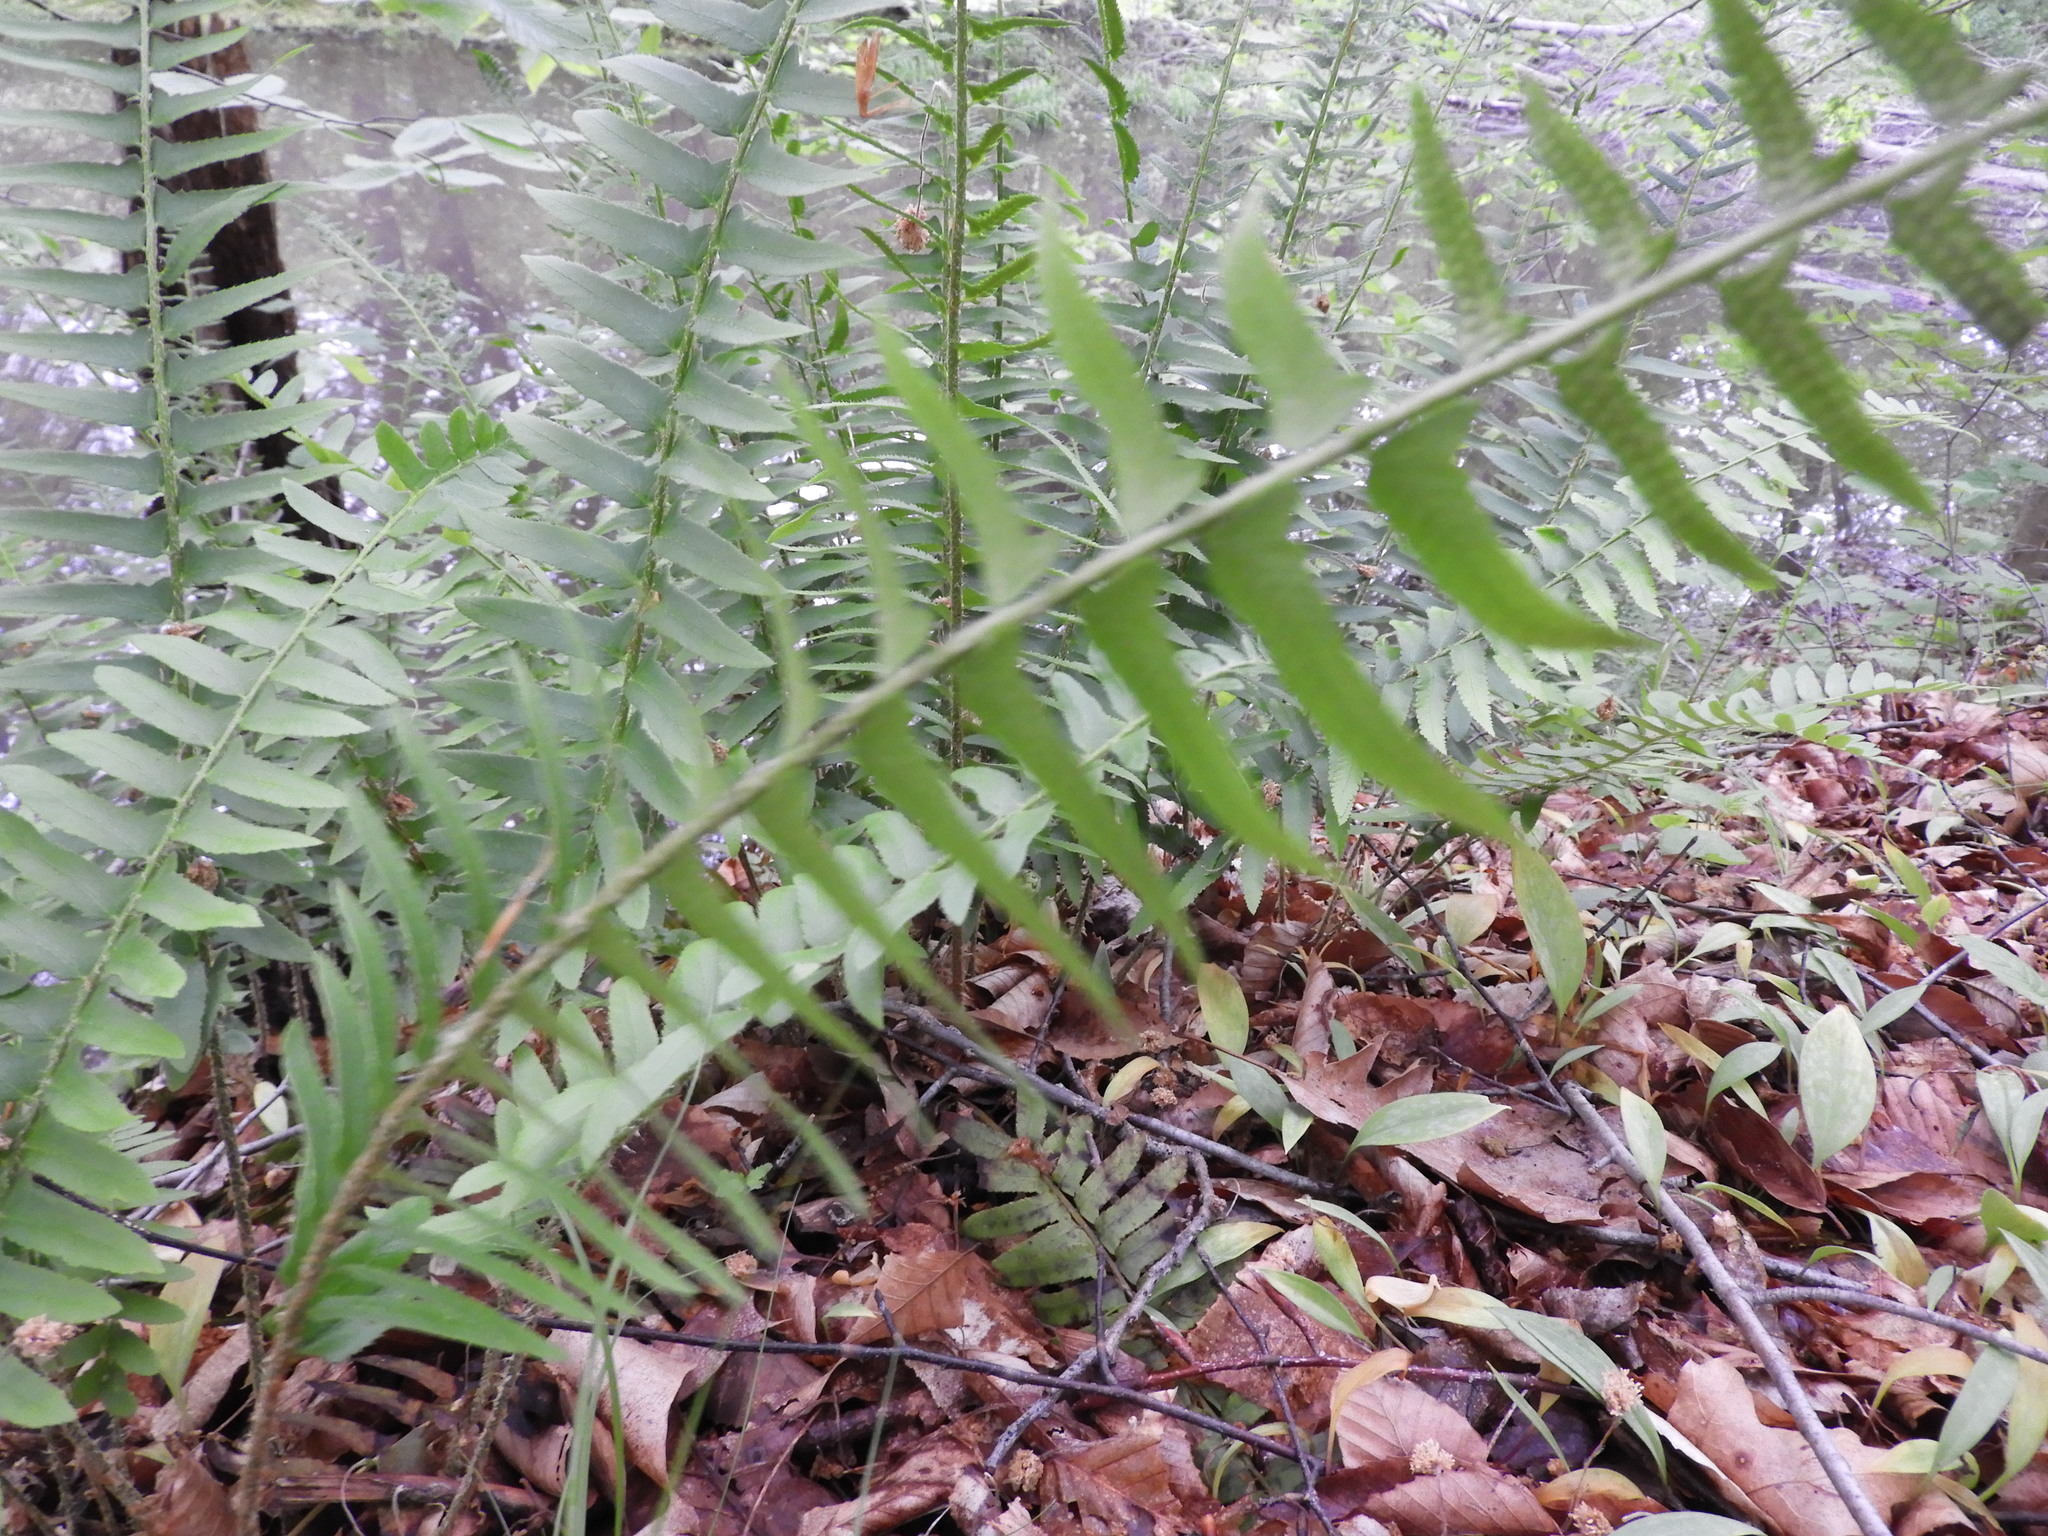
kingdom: Plantae
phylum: Tracheophyta
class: Polypodiopsida
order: Polypodiales
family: Dryopteridaceae
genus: Polystichum
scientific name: Polystichum acrostichoides
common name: Christmas fern
